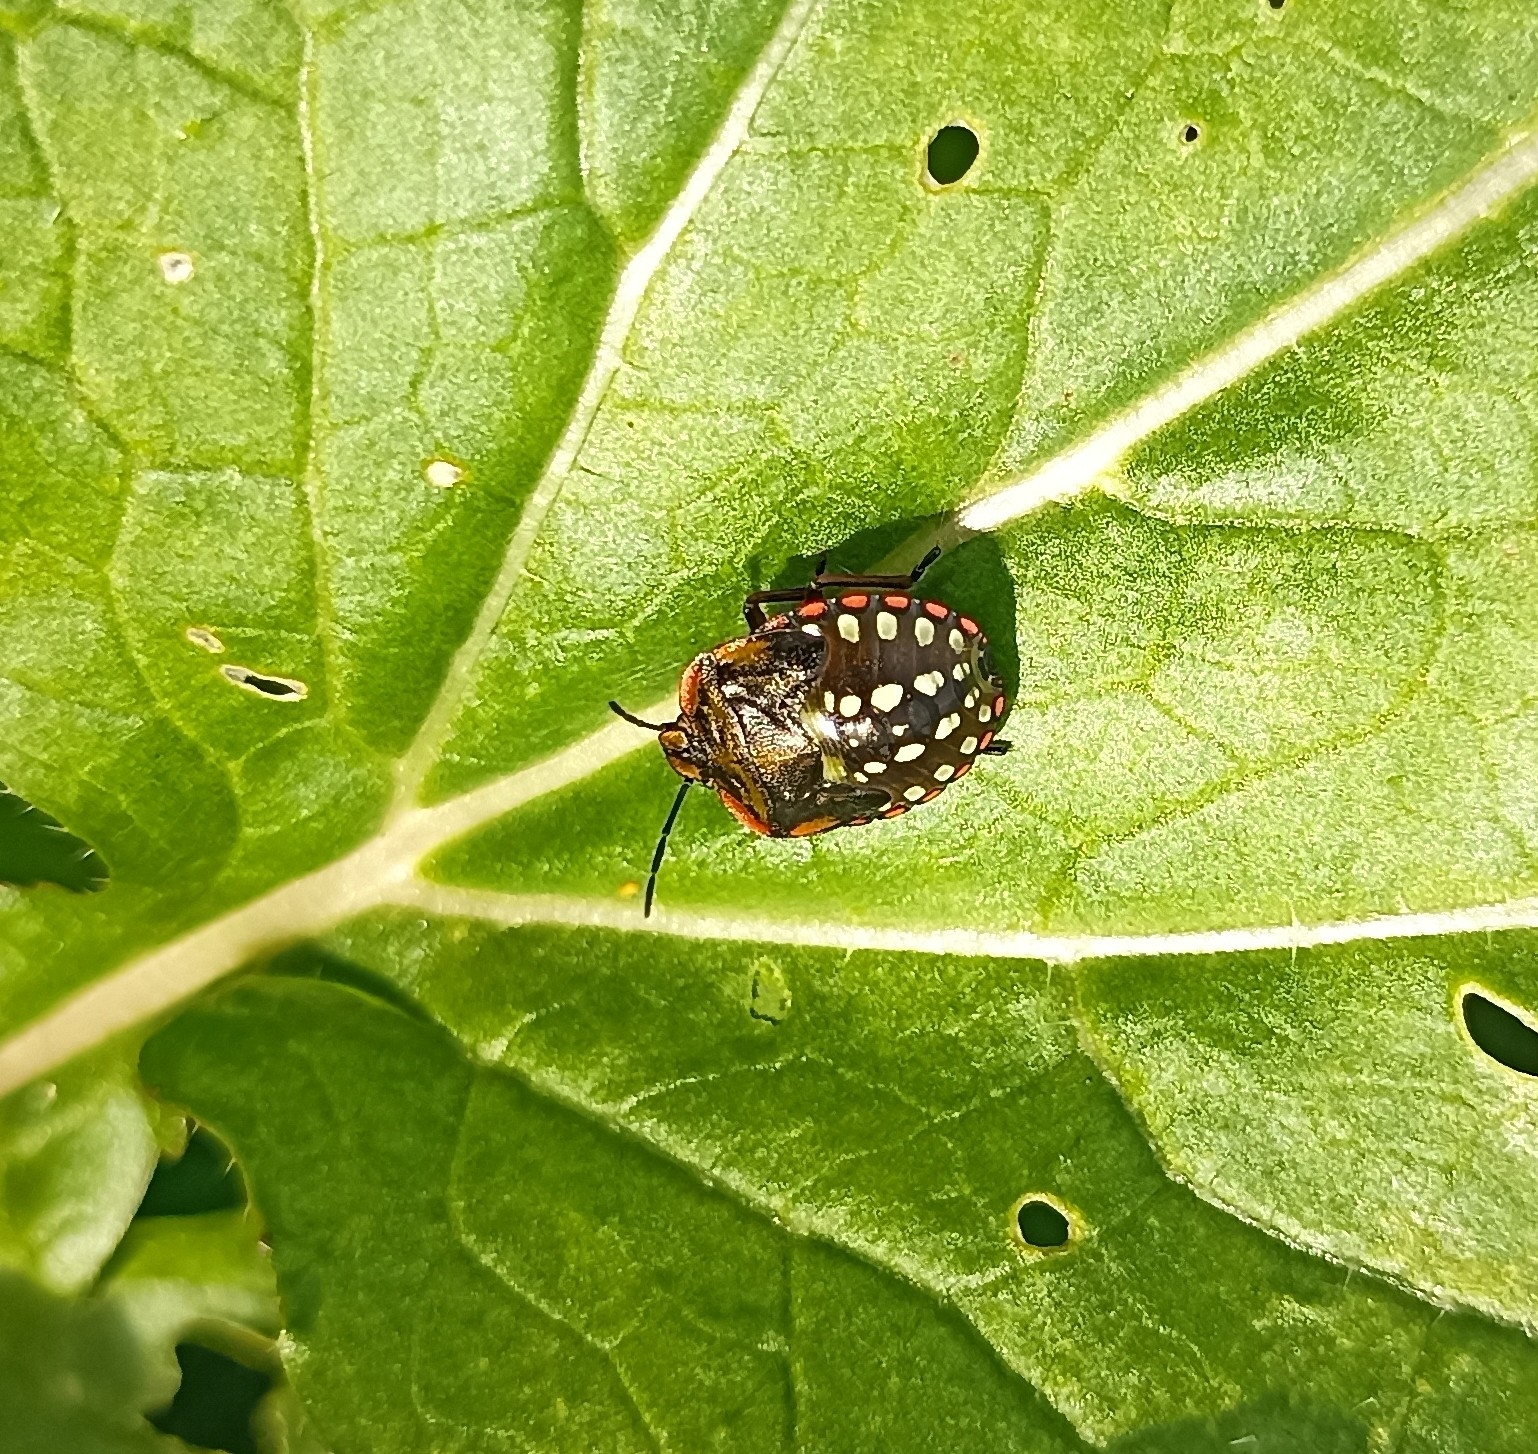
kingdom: Animalia
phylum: Arthropoda
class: Insecta
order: Hemiptera
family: Pentatomidae
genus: Nezara
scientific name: Nezara viridula
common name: Southern green stink bug
